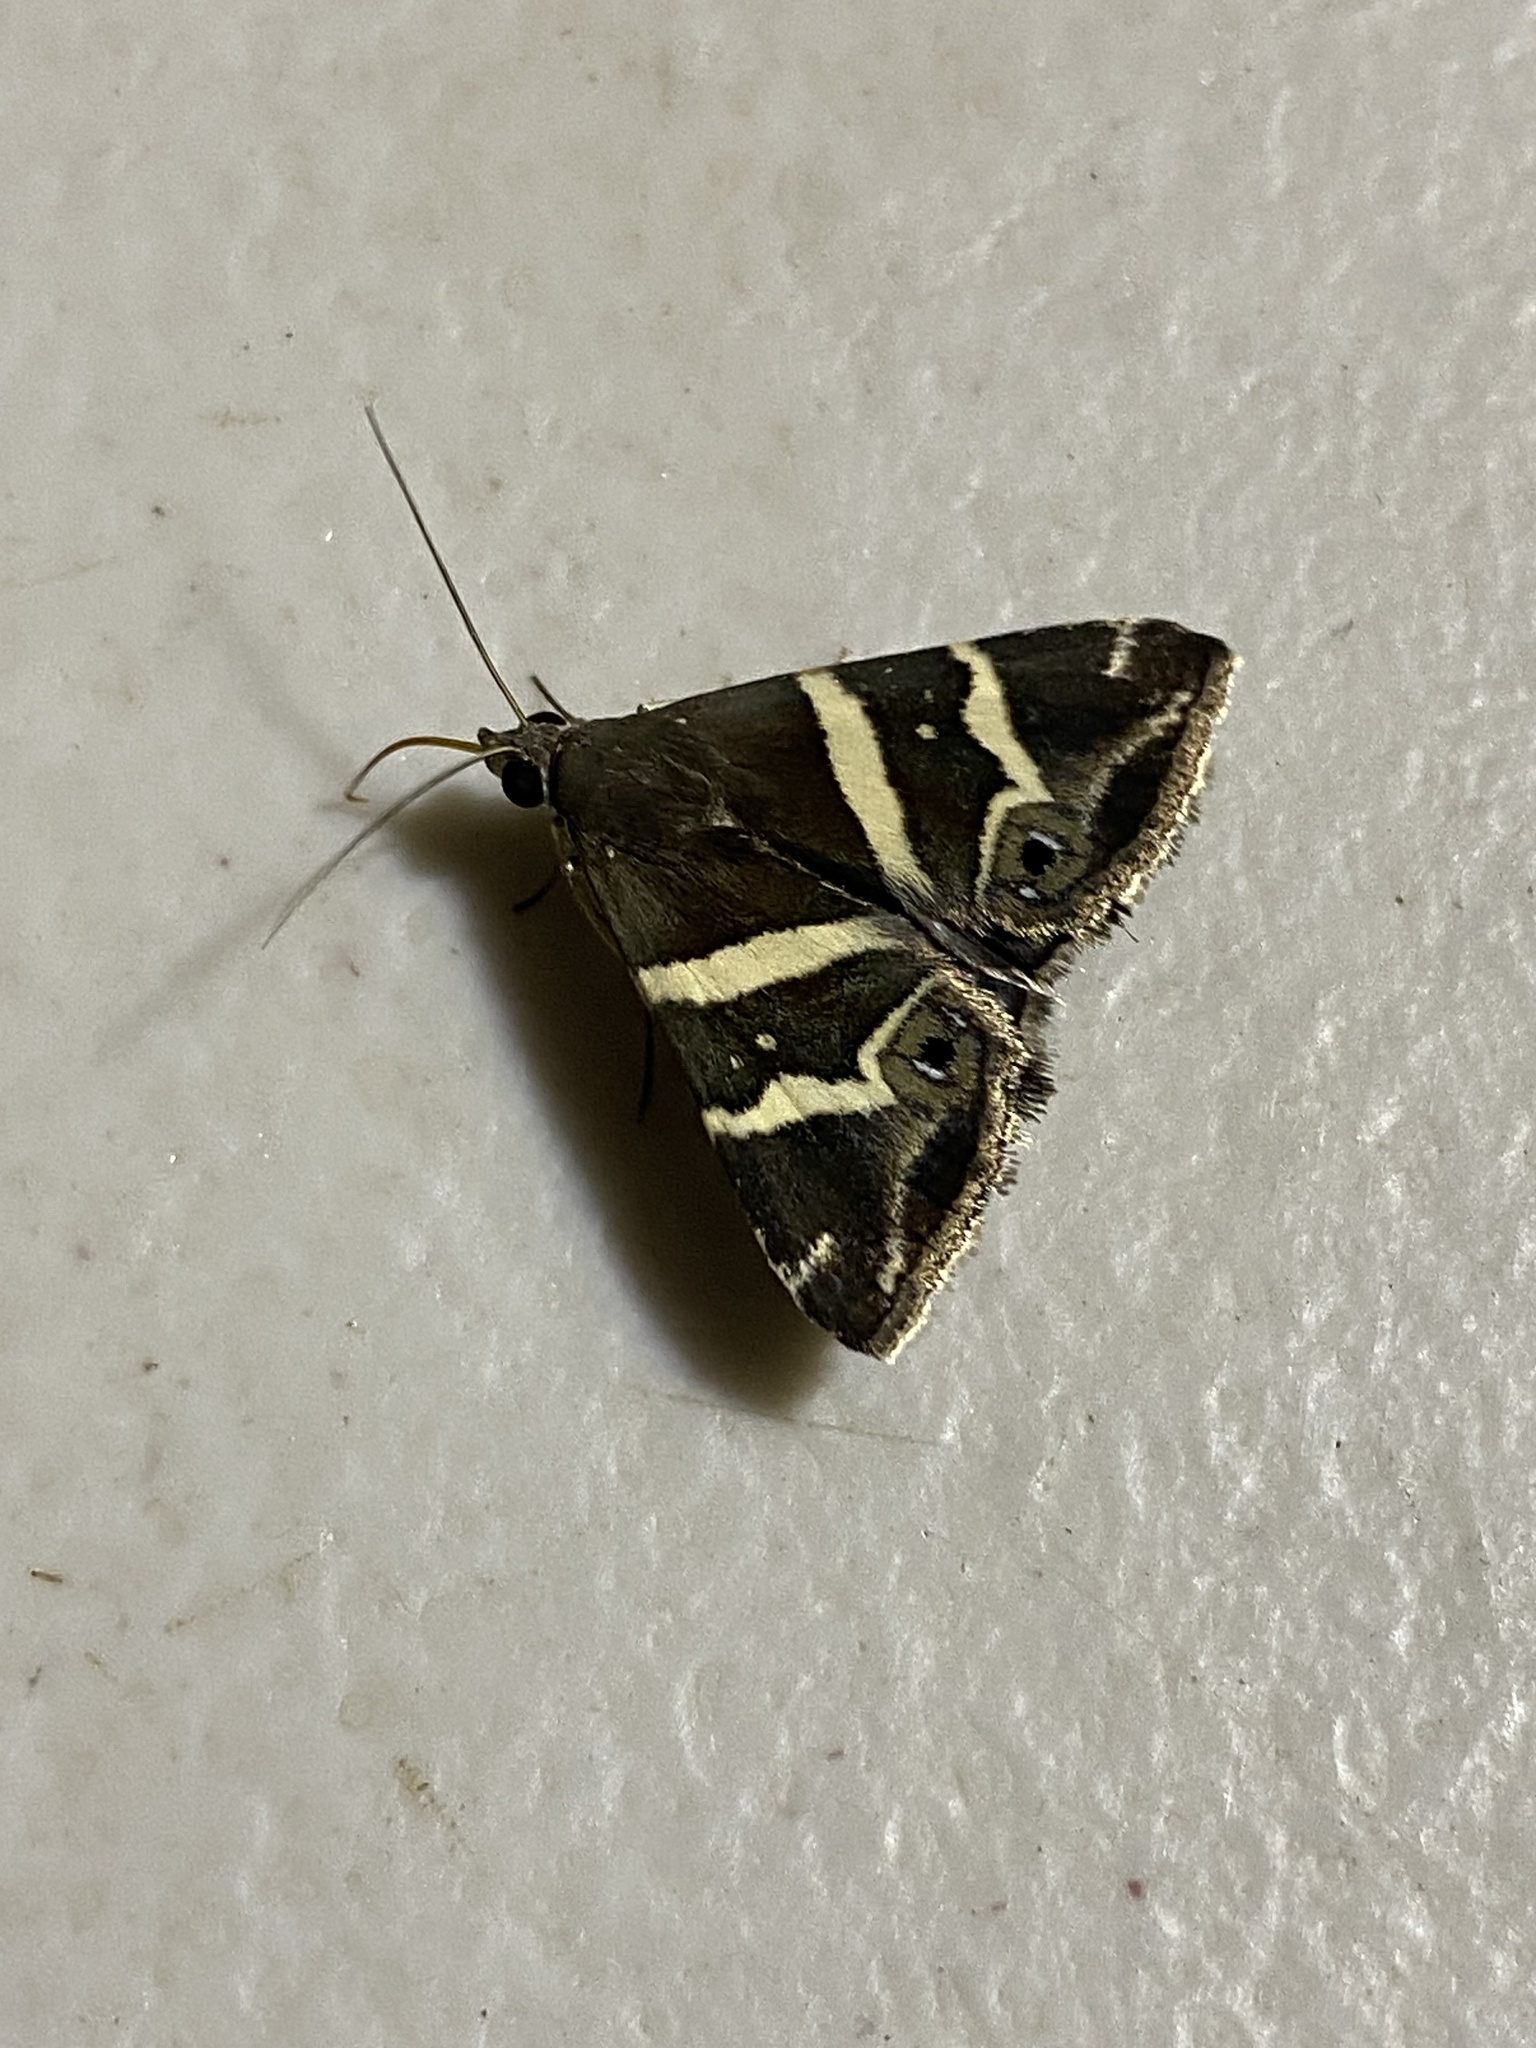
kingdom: Animalia
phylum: Arthropoda
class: Insecta
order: Lepidoptera
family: Erebidae
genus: Grammodes
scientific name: Grammodes pulcherrima
